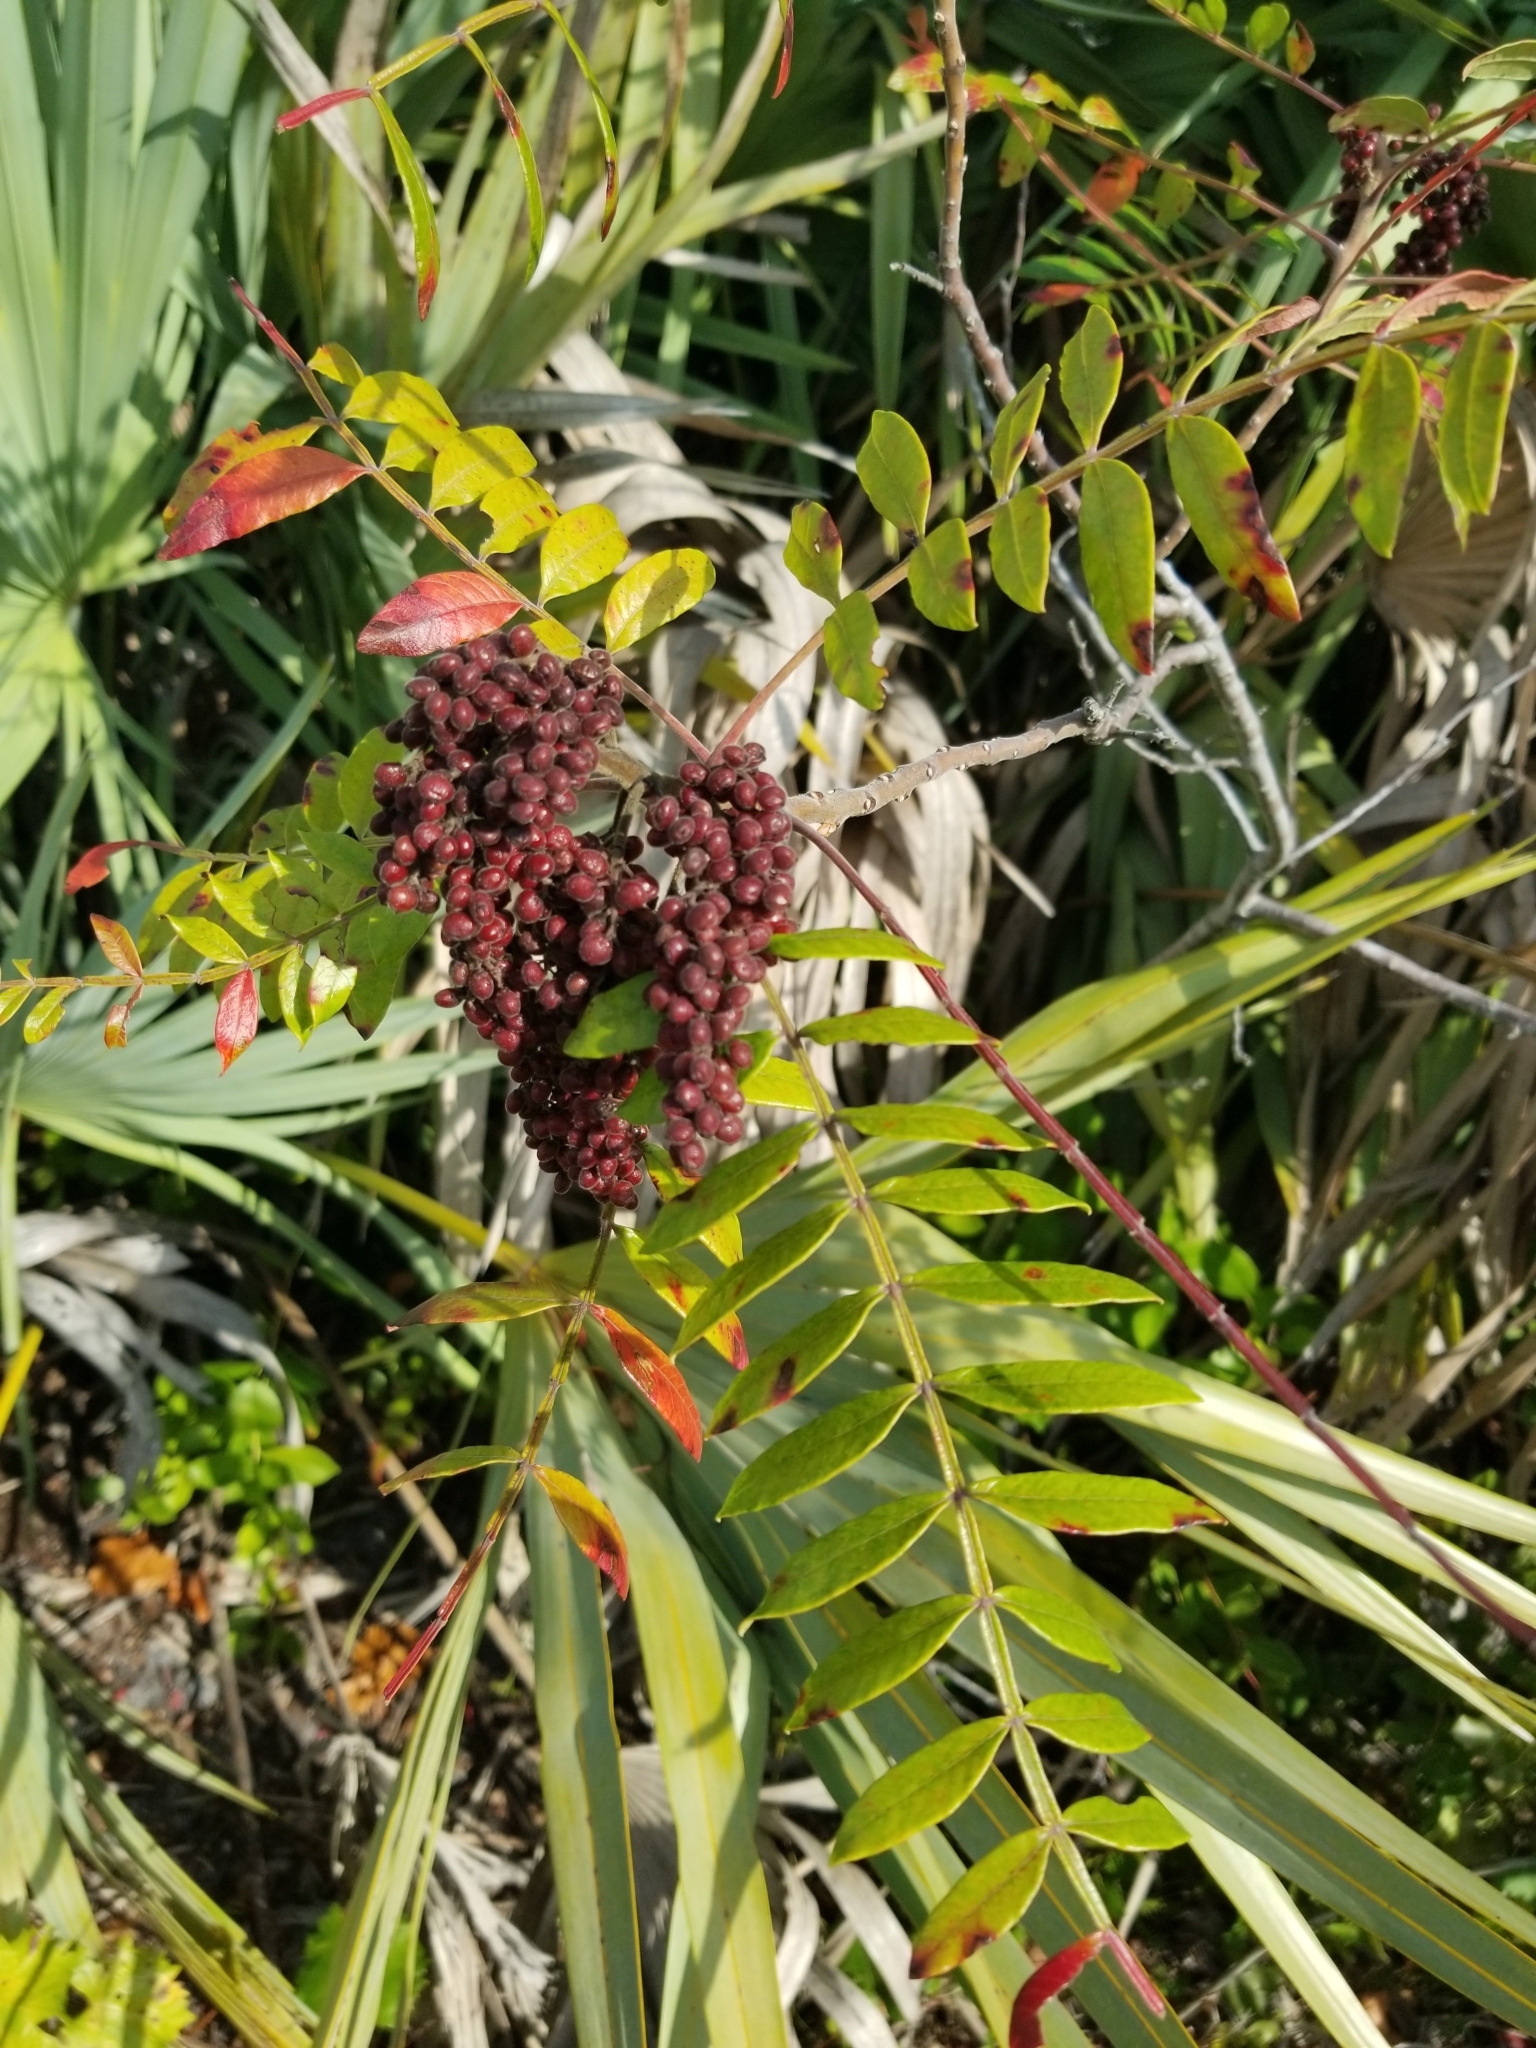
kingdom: Plantae
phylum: Tracheophyta
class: Magnoliopsida
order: Sapindales
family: Anacardiaceae
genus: Rhus
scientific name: Rhus copallina
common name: Shining sumac
